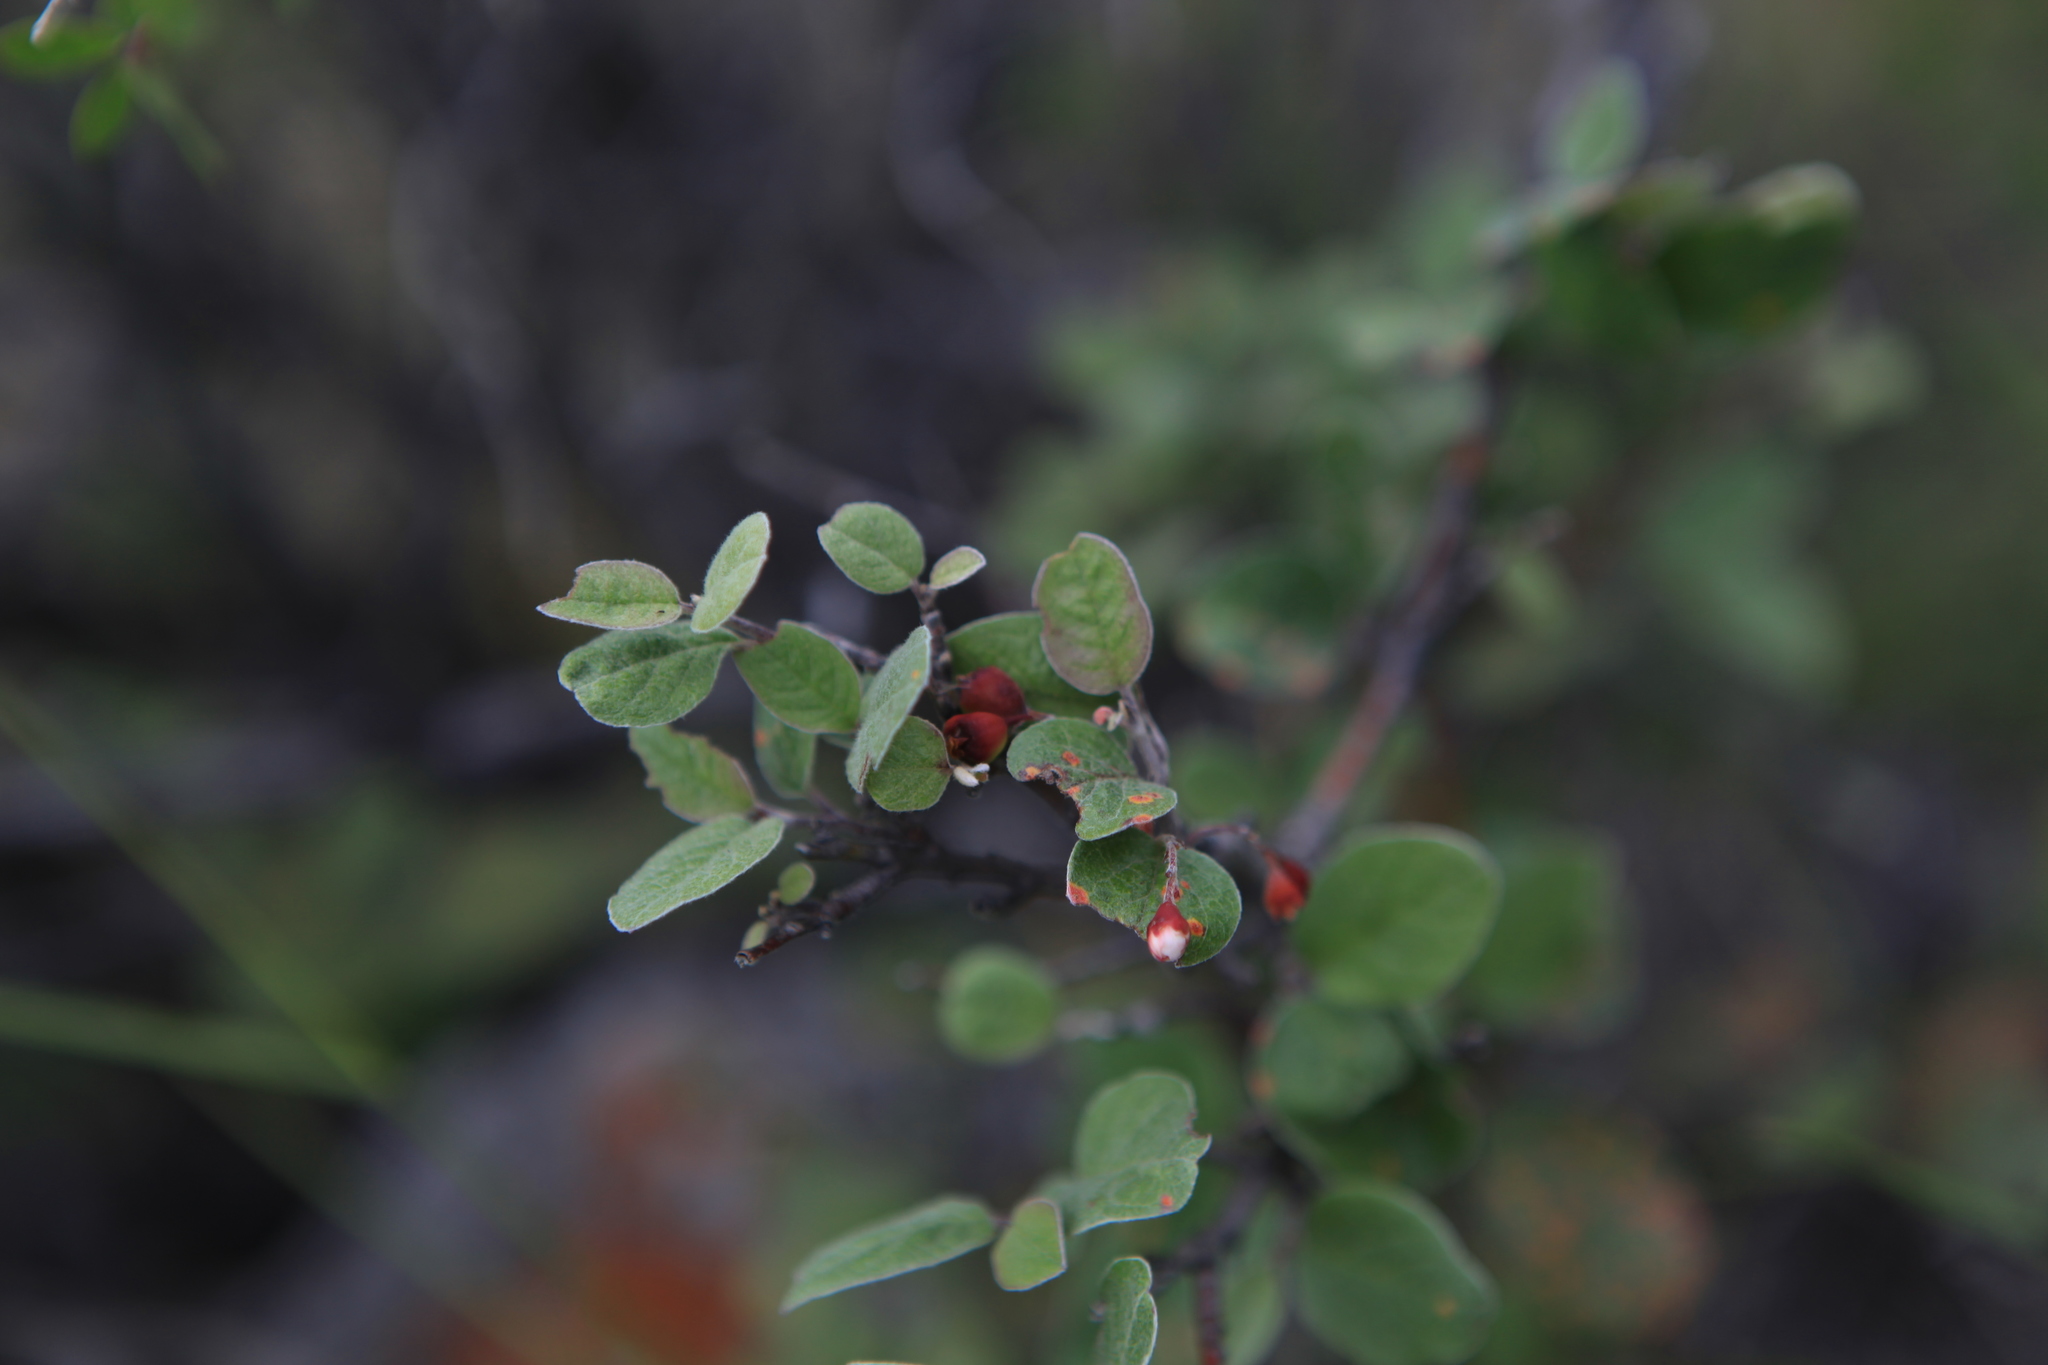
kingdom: Plantae
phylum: Tracheophyta
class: Magnoliopsida
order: Rosales
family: Rosaceae
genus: Cotoneaster
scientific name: Cotoneaster melanocarpus
